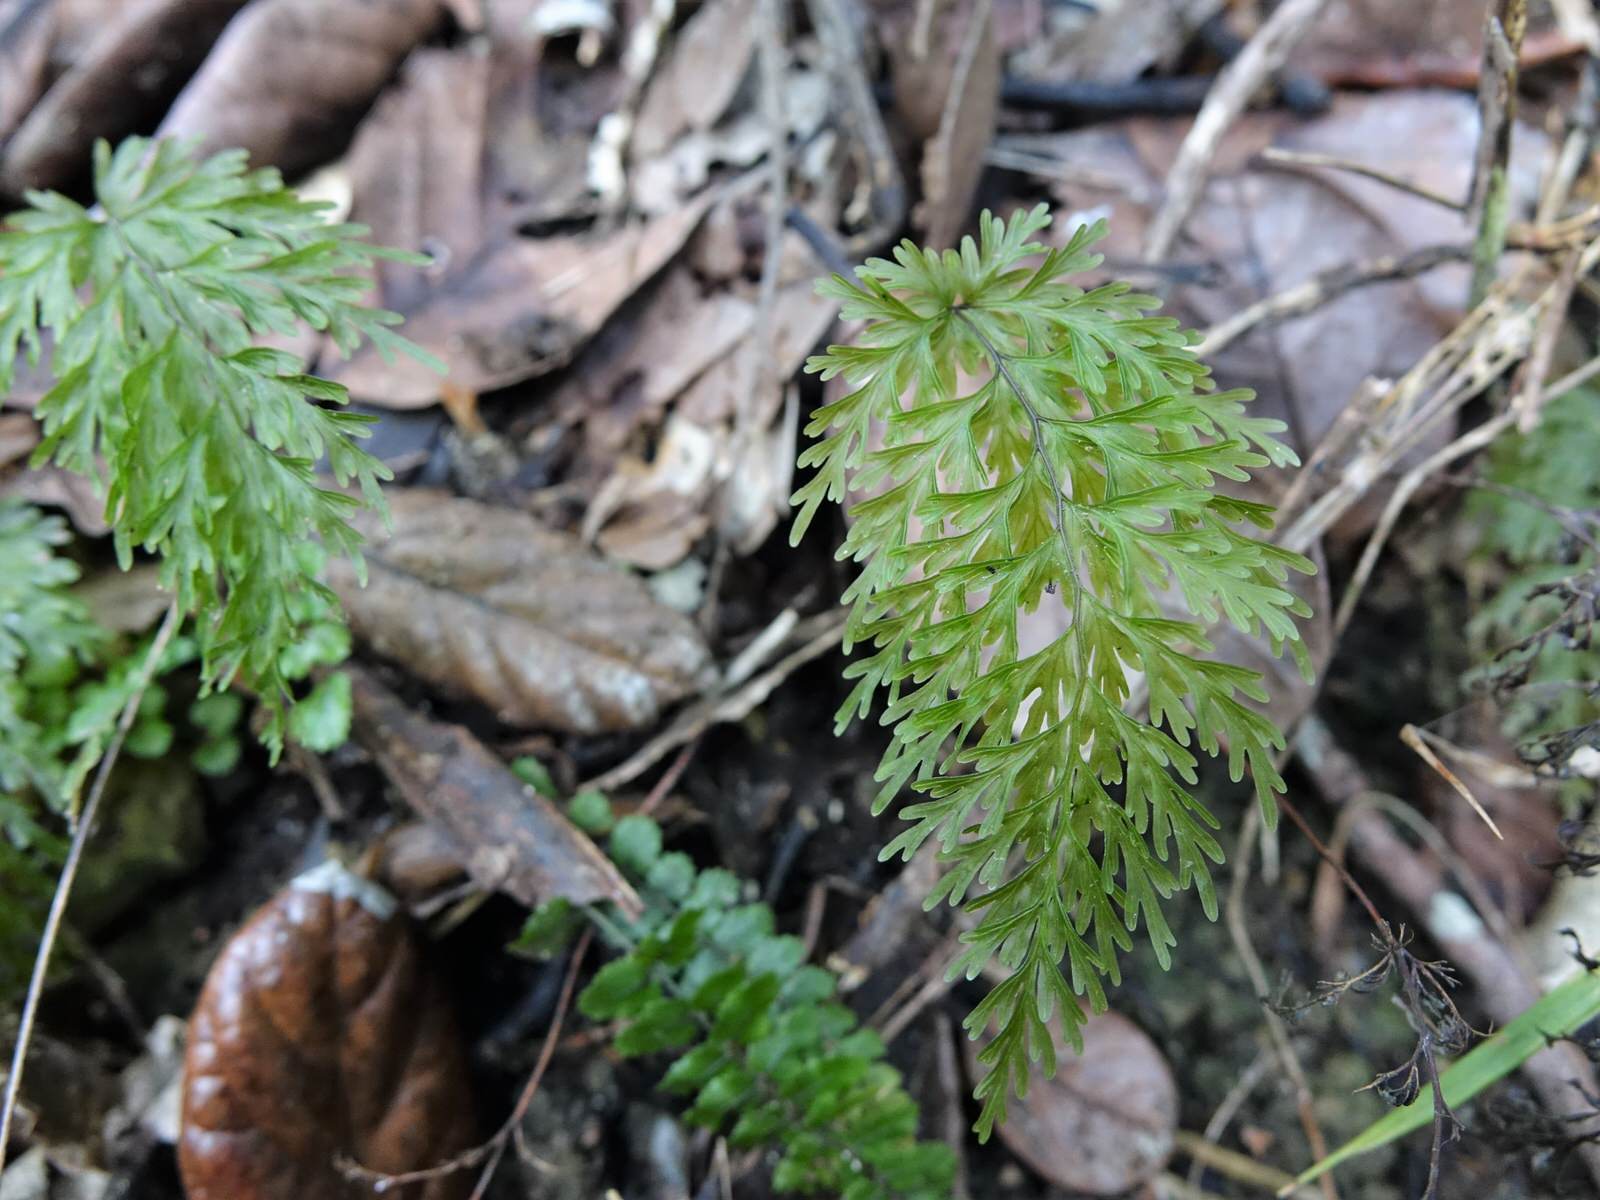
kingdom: Plantae
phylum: Tracheophyta
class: Polypodiopsida
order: Hymenophyllales
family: Hymenophyllaceae
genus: Hymenophyllum
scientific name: Hymenophyllum demissum
